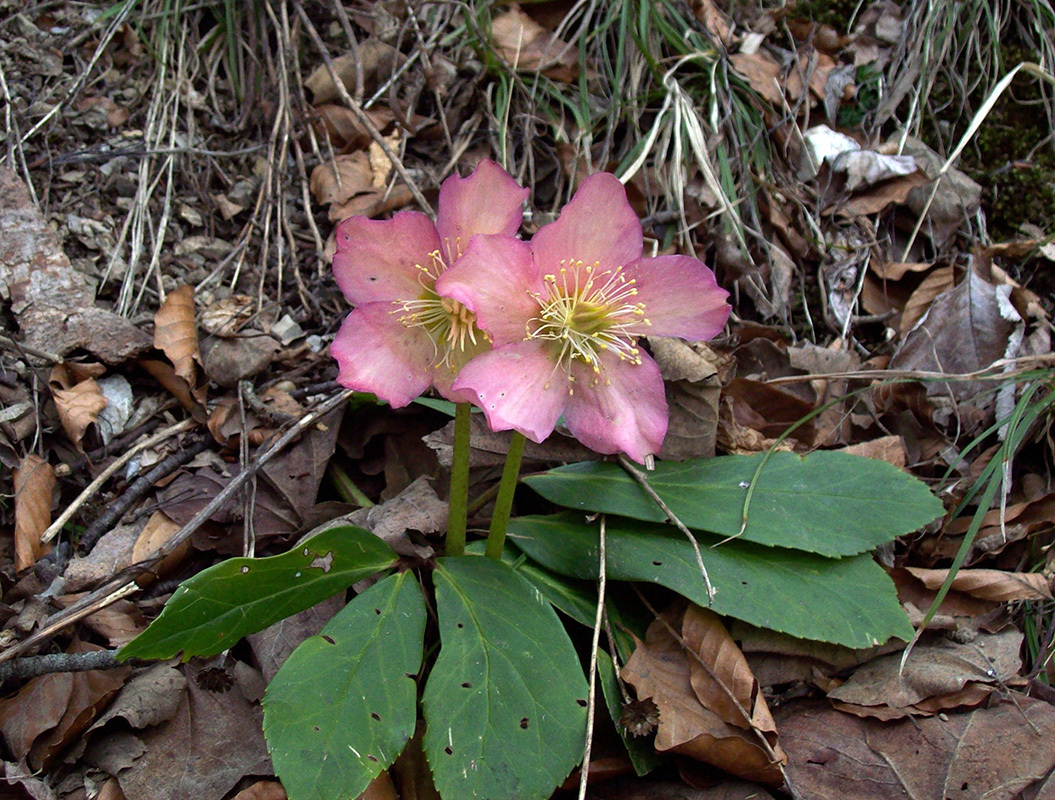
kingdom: Plantae
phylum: Tracheophyta
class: Magnoliopsida
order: Ranunculales
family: Ranunculaceae
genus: Helleborus
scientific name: Helleborus niger
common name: Black hellebore
